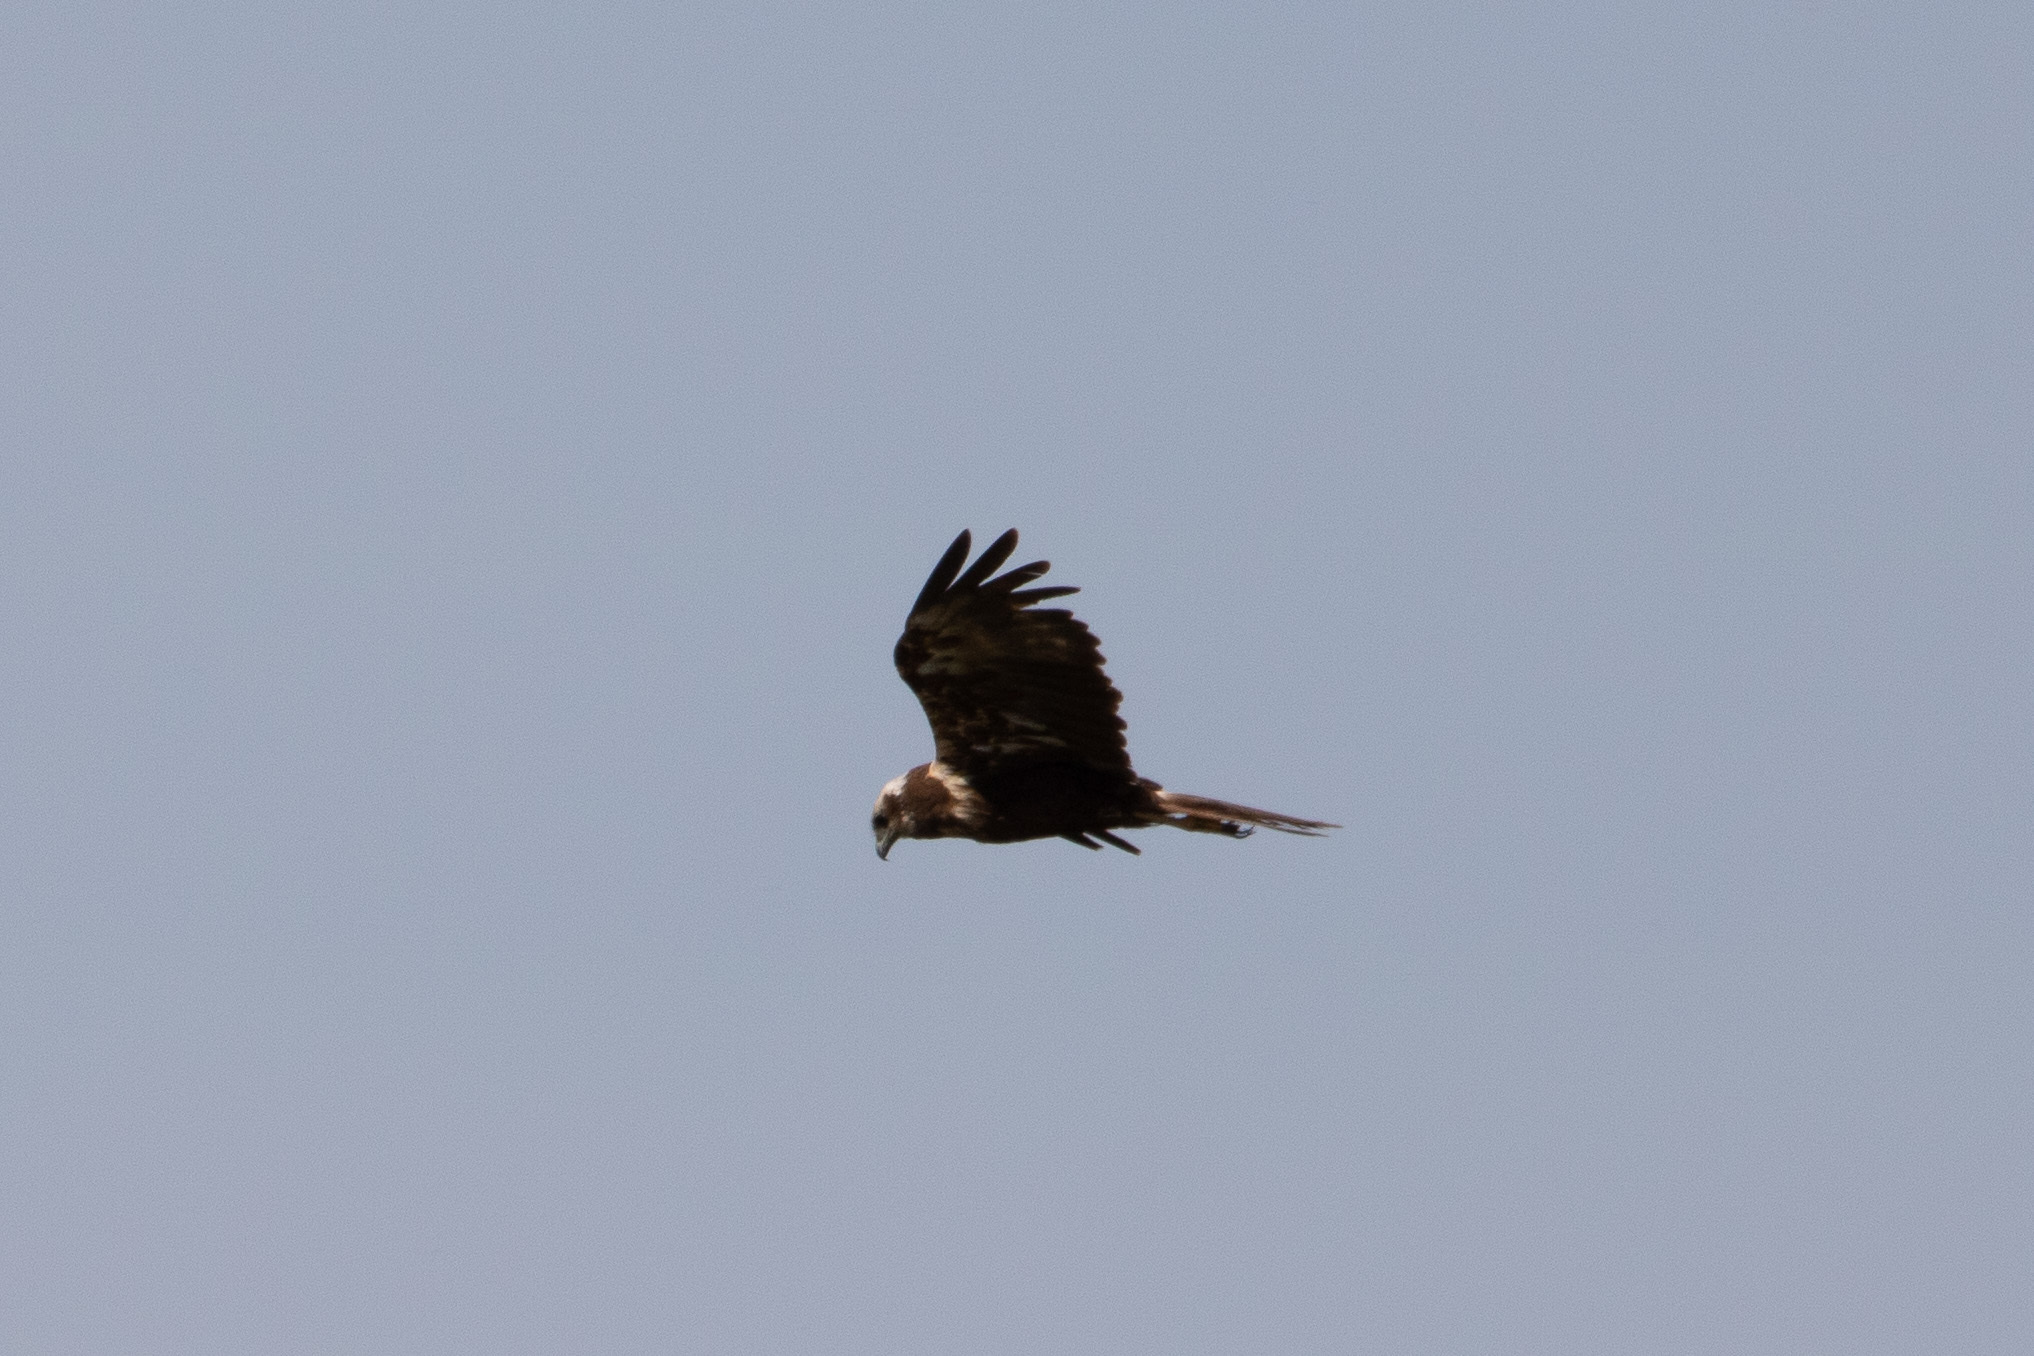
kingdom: Animalia
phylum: Chordata
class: Aves
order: Accipitriformes
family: Accipitridae
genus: Circus
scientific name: Circus aeruginosus
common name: Western marsh harrier
